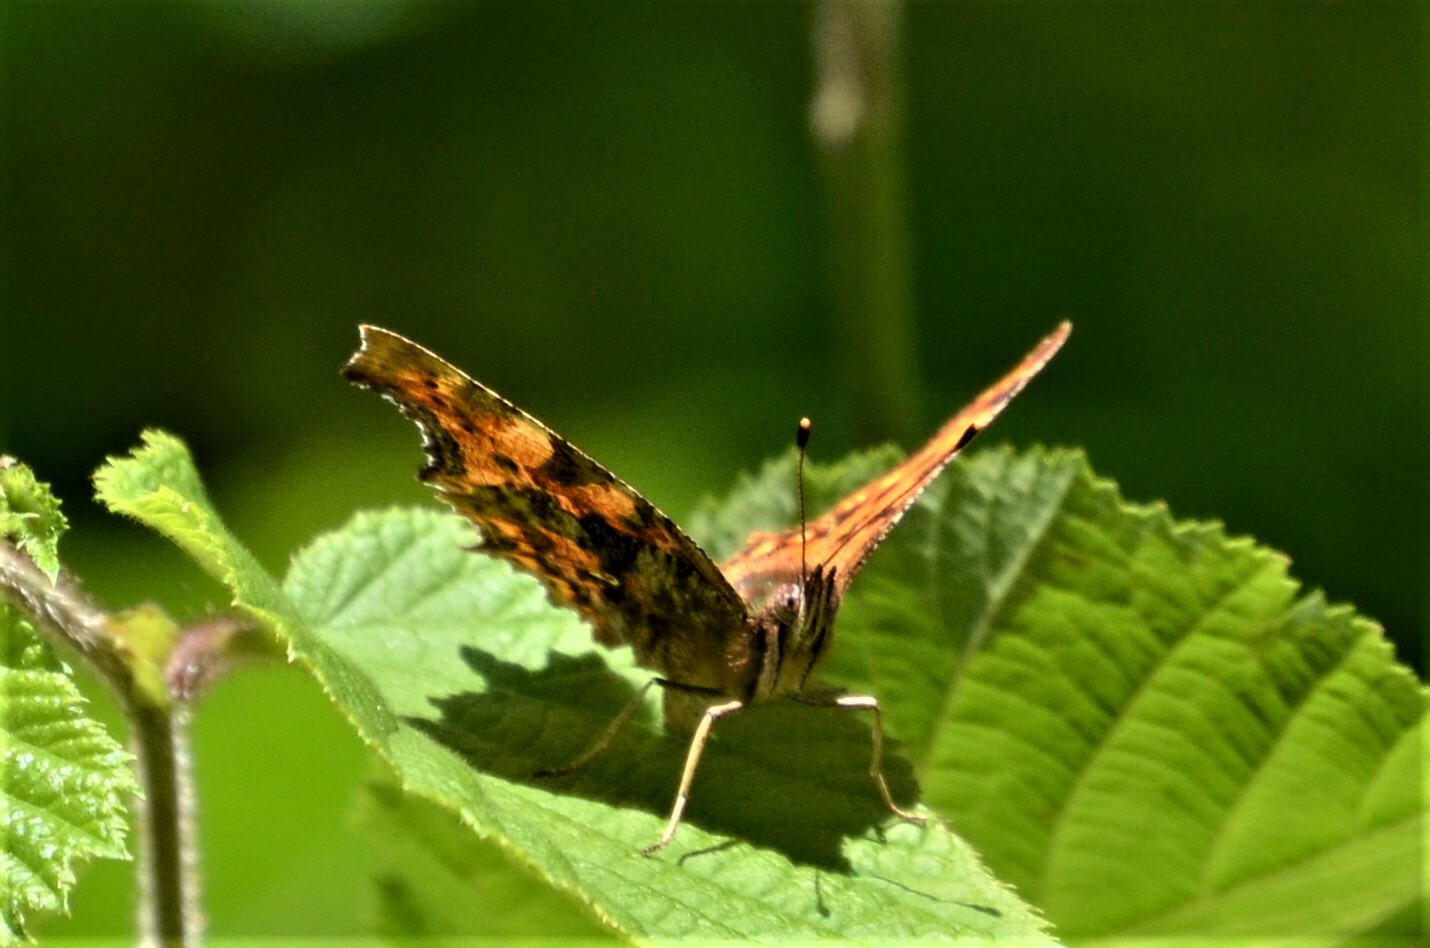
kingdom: Animalia
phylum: Arthropoda
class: Insecta
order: Lepidoptera
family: Nymphalidae
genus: Polygonia
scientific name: Polygonia c-album
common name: Comma
